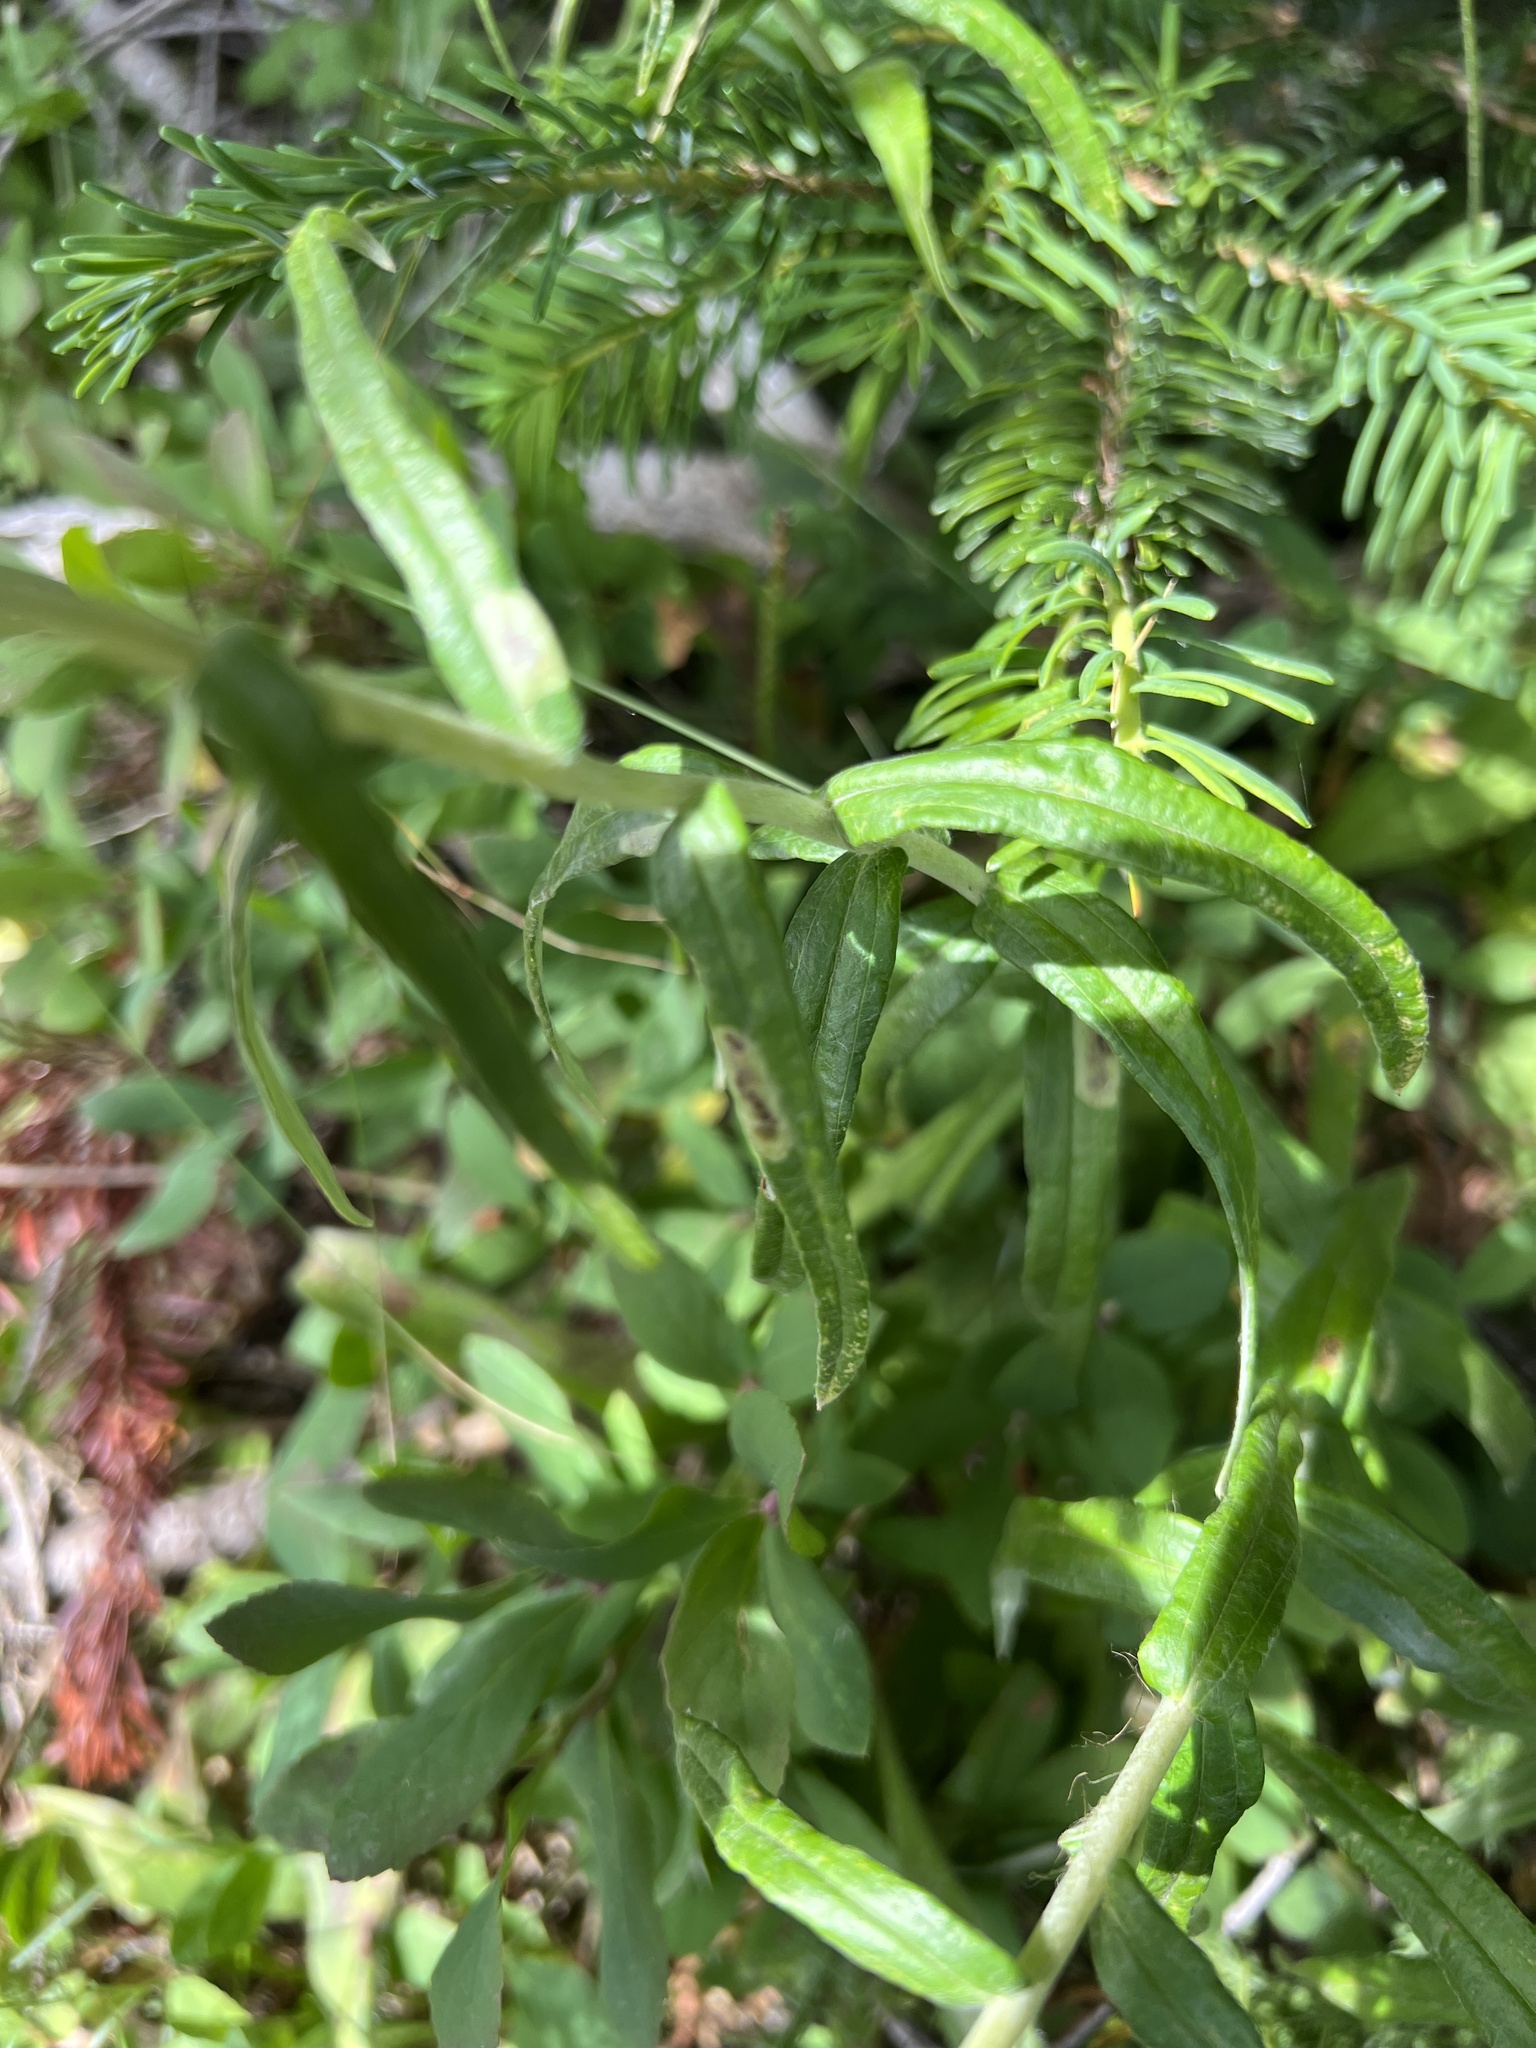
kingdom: Plantae
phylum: Tracheophyta
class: Magnoliopsida
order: Asterales
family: Asteraceae
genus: Anaphalis
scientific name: Anaphalis margaritacea
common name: Pearly everlasting
